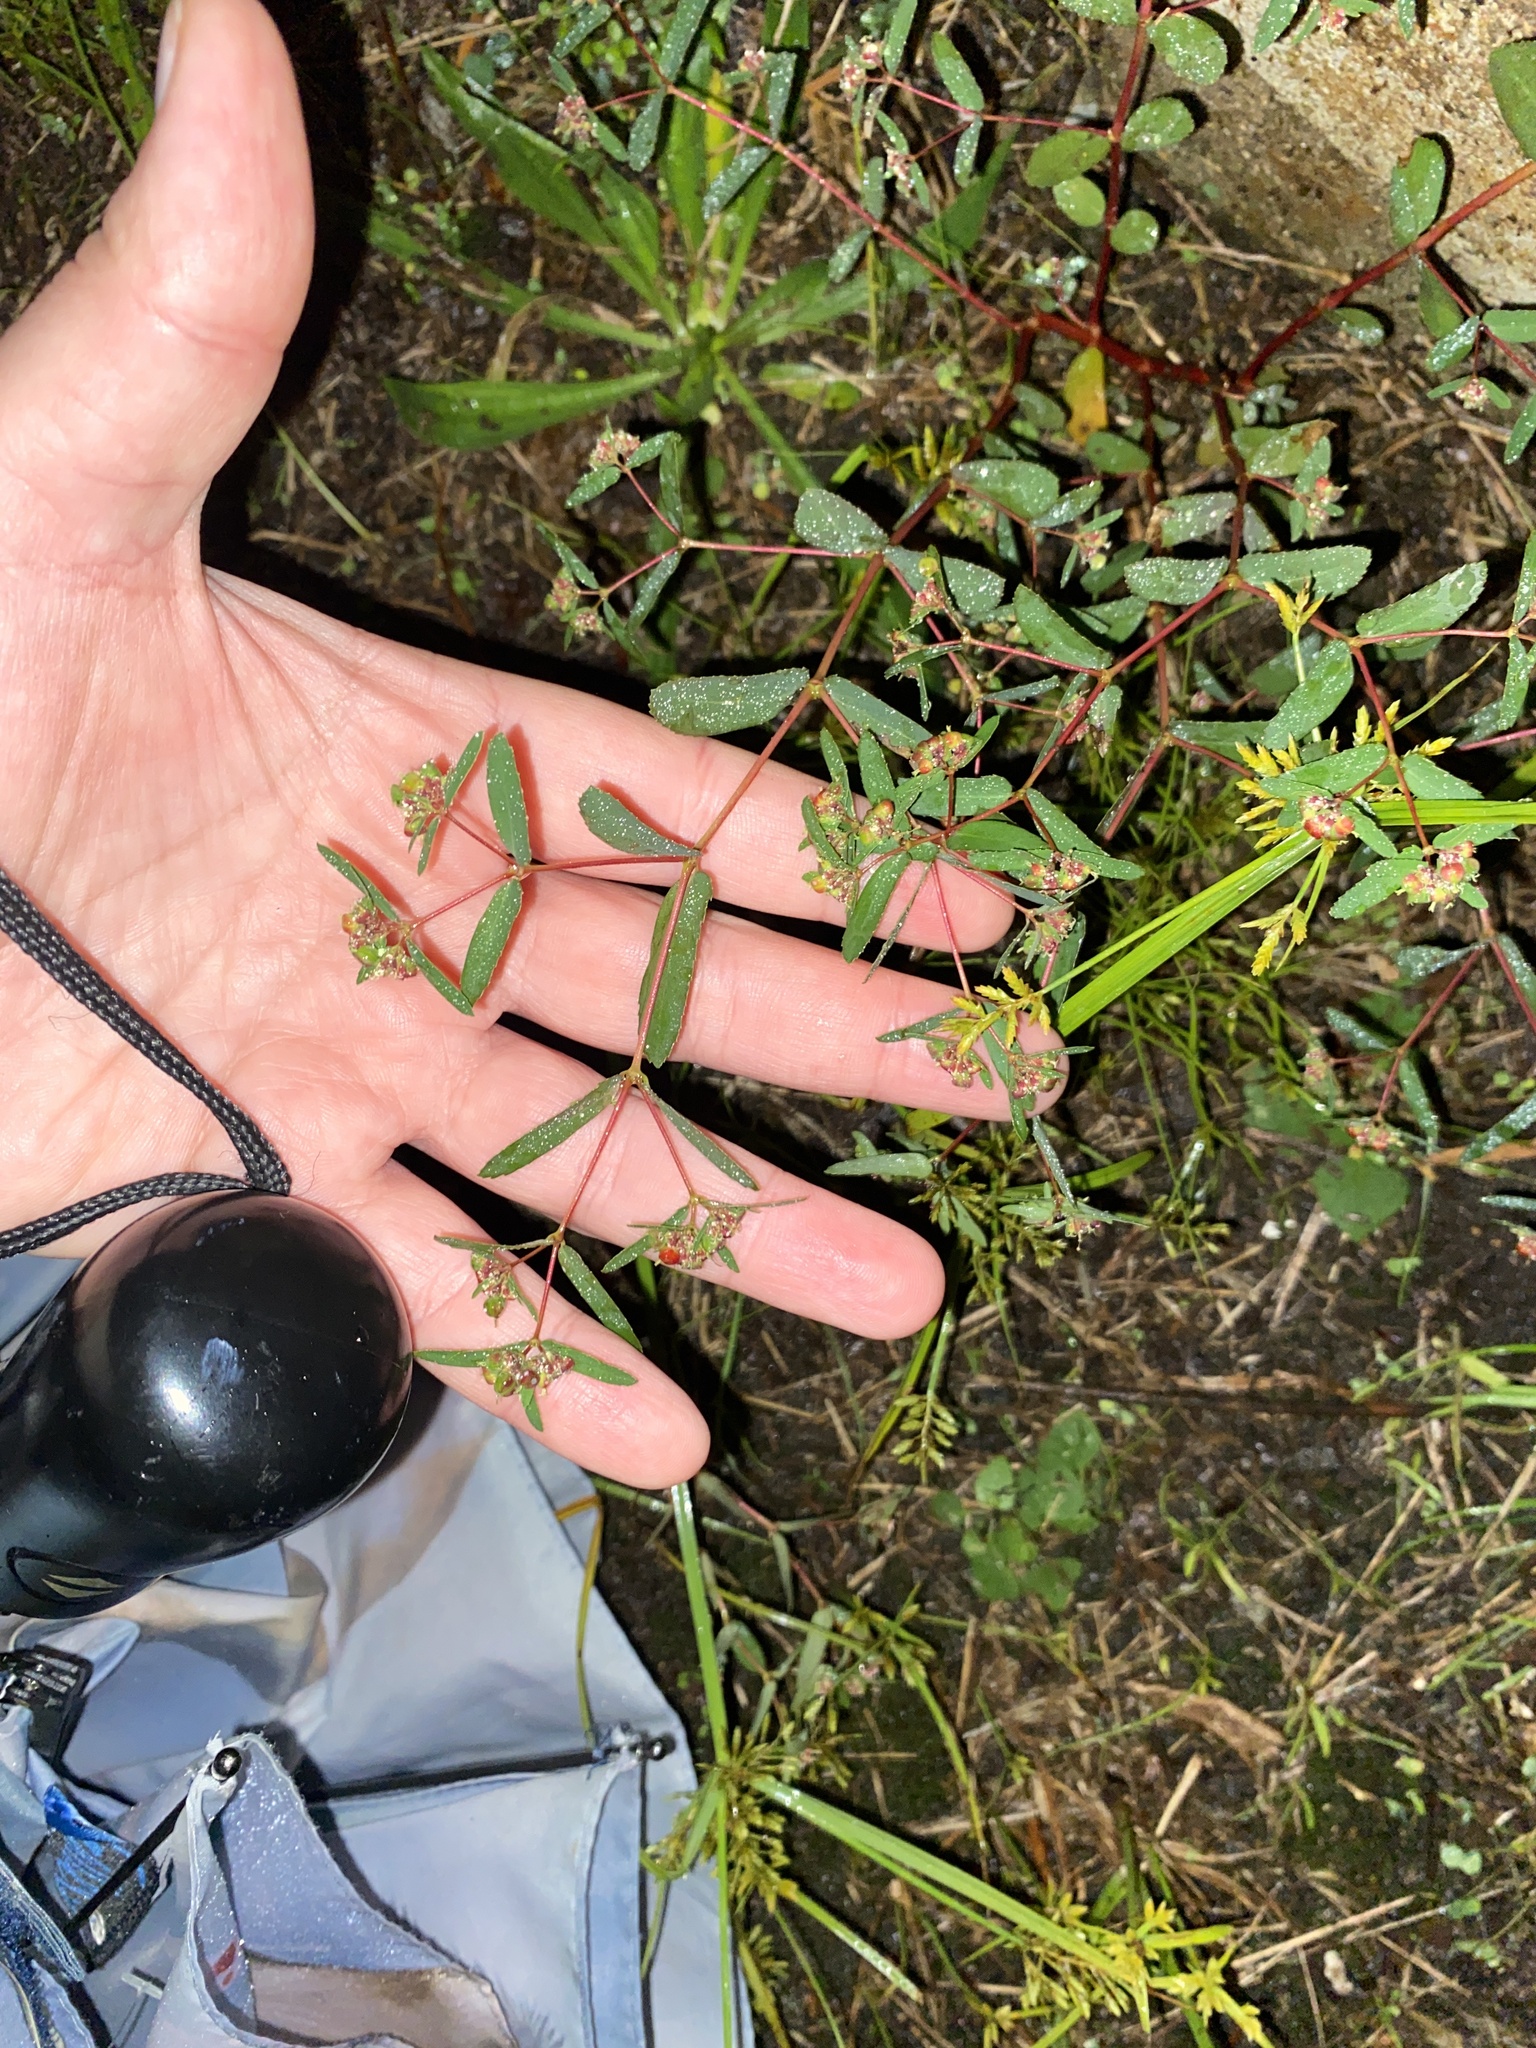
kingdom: Plantae
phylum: Tracheophyta
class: Magnoliopsida
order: Malpighiales
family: Euphorbiaceae
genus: Euphorbia
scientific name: Euphorbia nutans
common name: Eyebane
